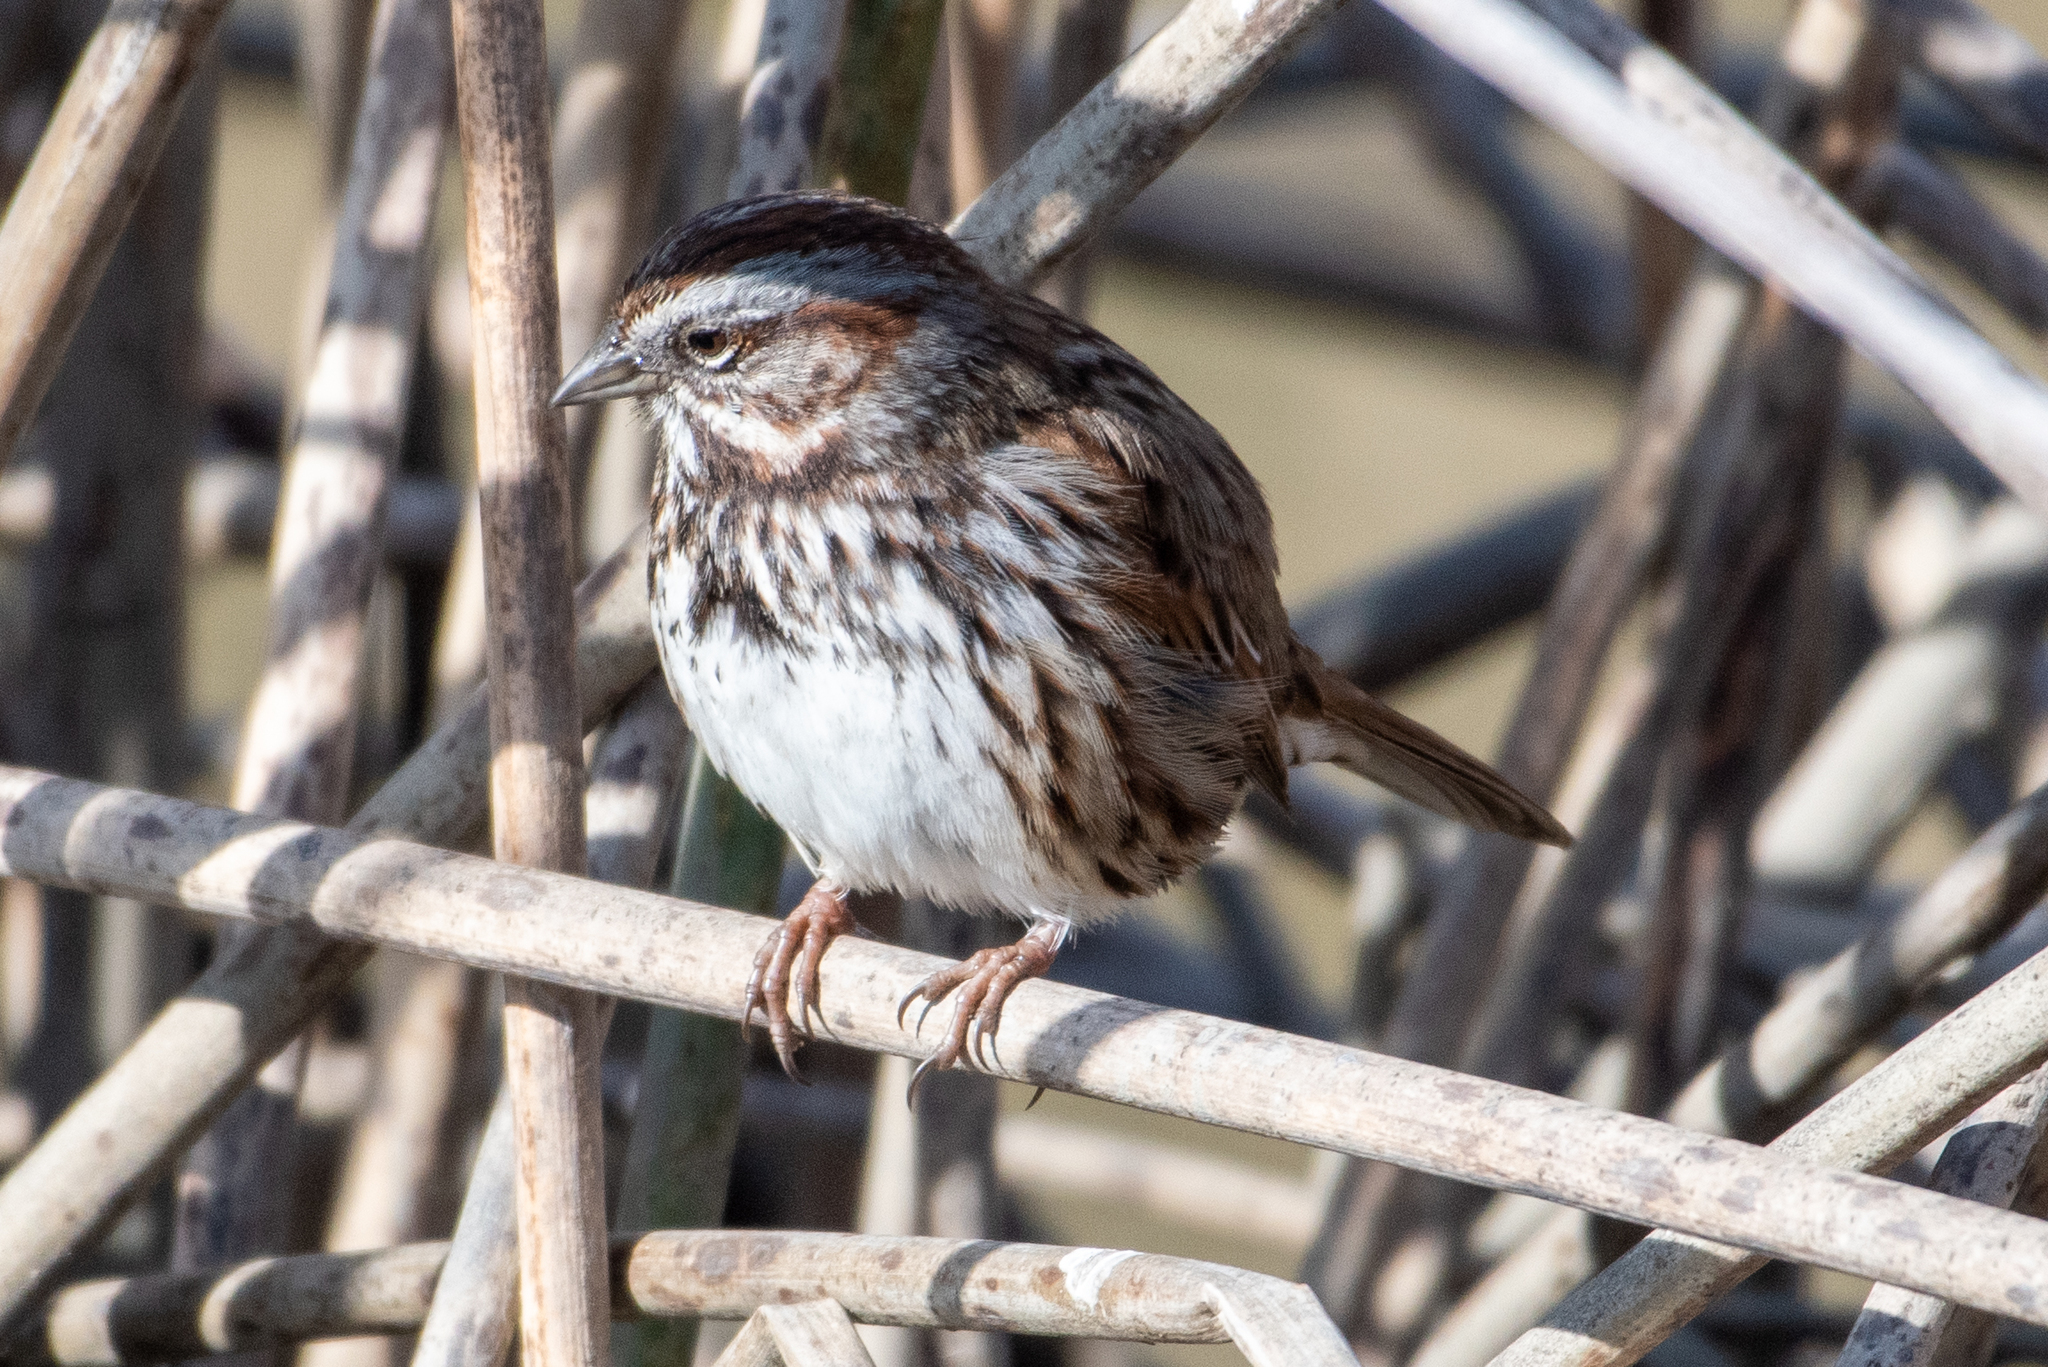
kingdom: Animalia
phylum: Chordata
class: Aves
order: Passeriformes
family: Passerellidae
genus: Melospiza
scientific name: Melospiza melodia
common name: Song sparrow
